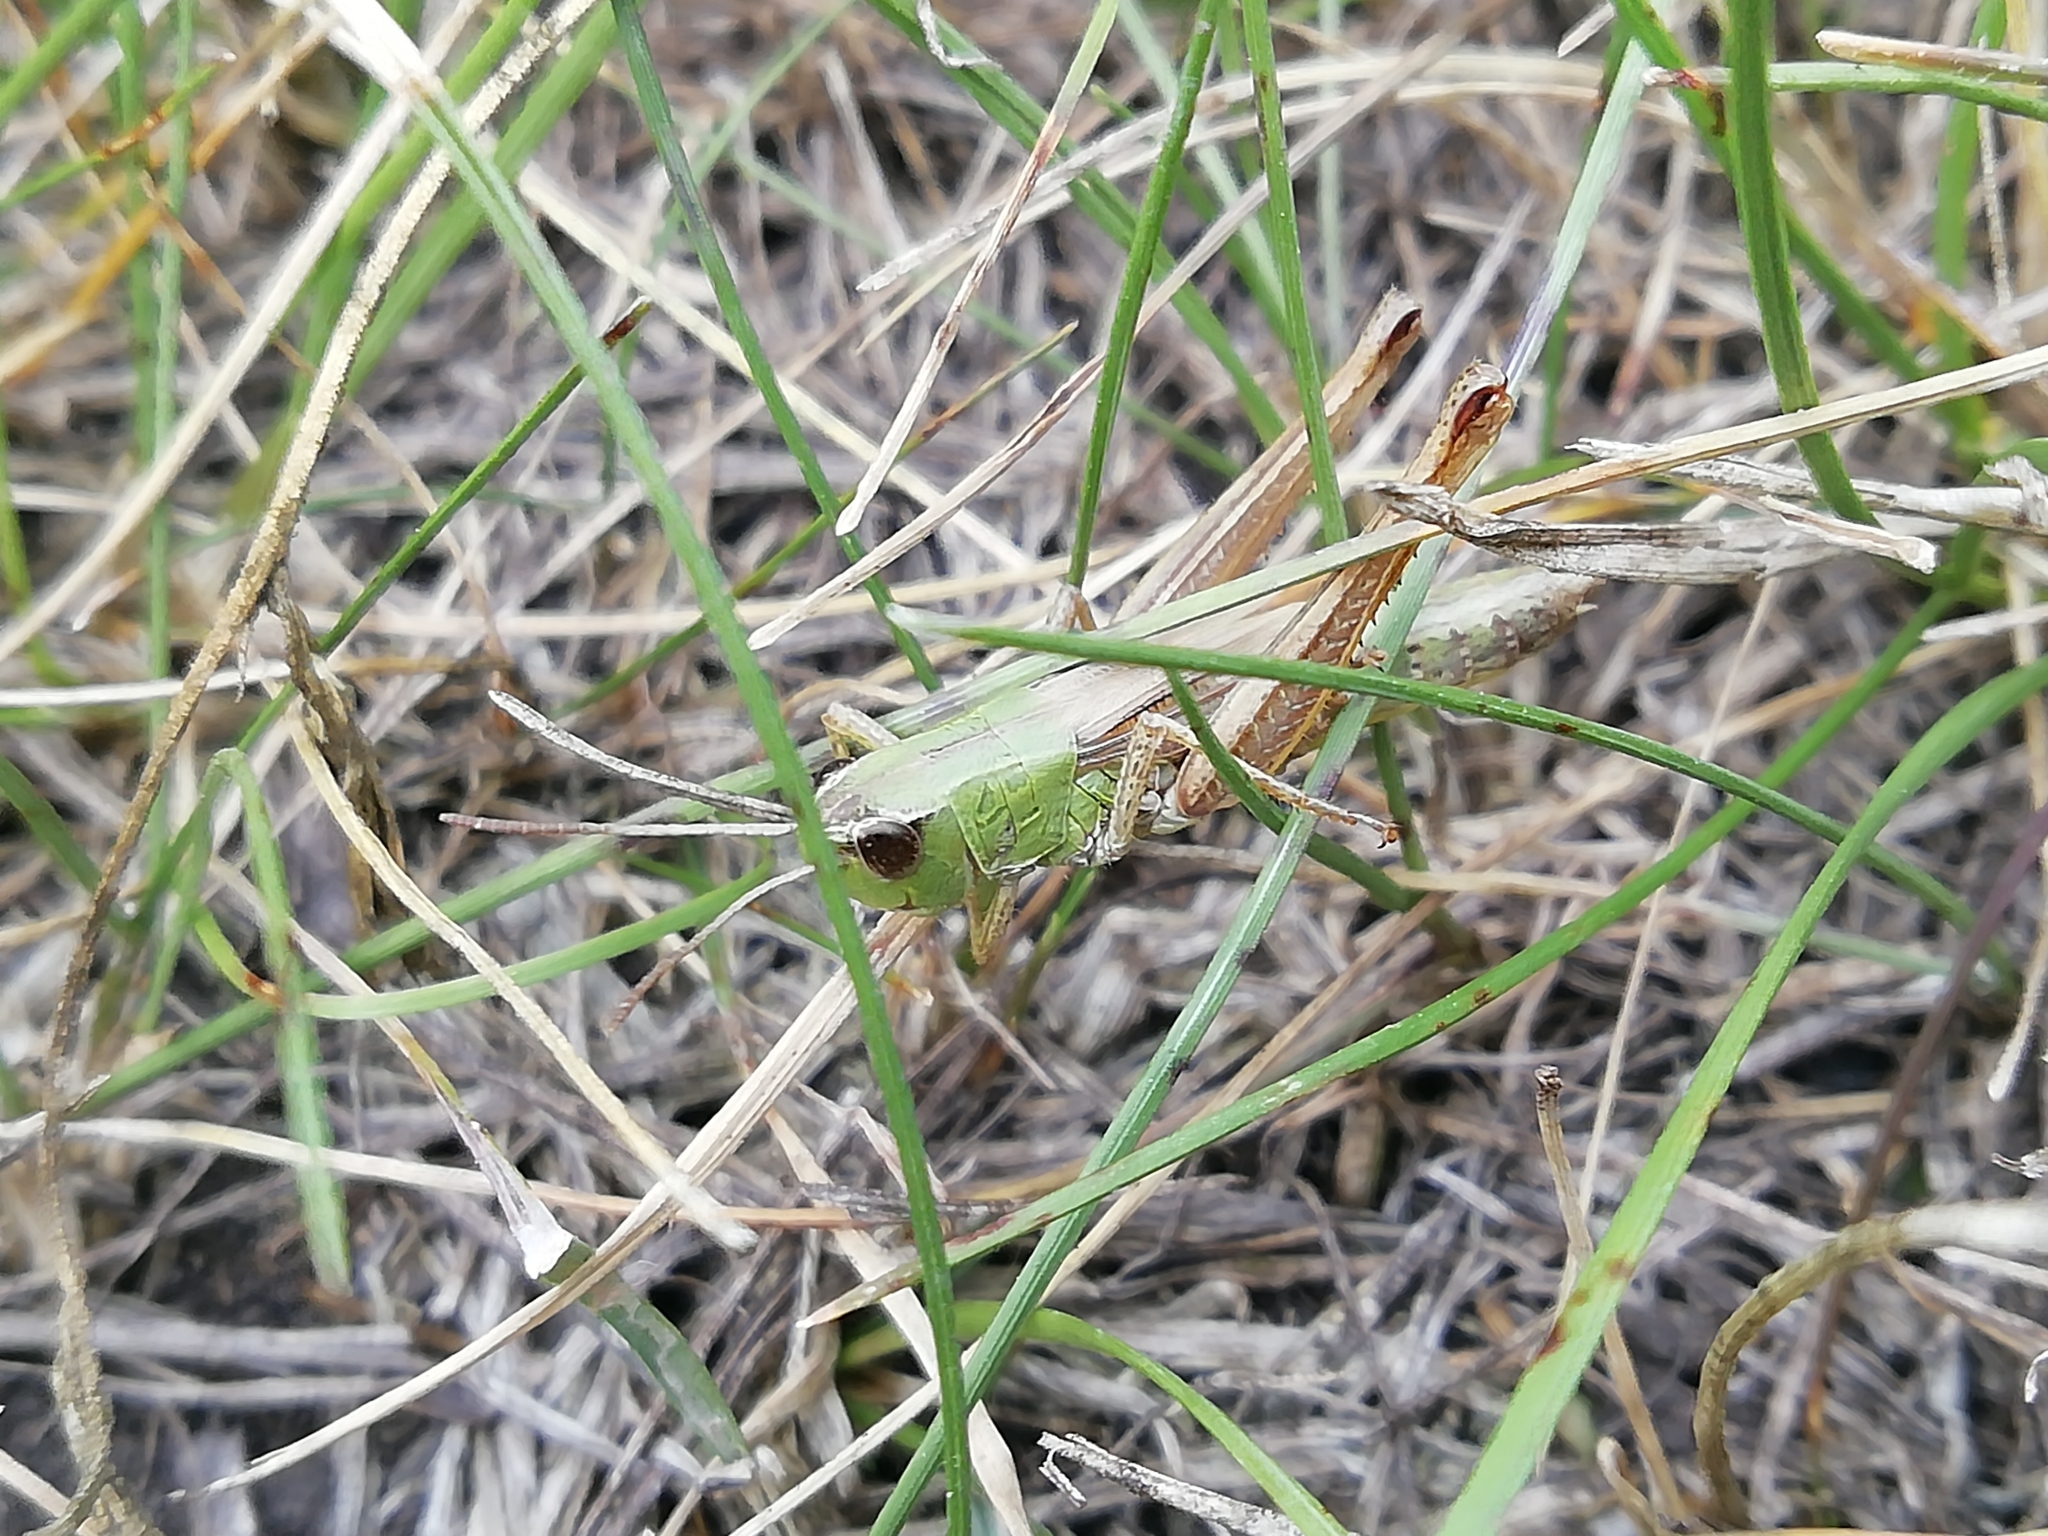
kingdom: Animalia
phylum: Arthropoda
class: Insecta
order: Orthoptera
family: Acrididae
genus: Pseudochorthippus
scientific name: Pseudochorthippus parallelus
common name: Meadow grasshopper
